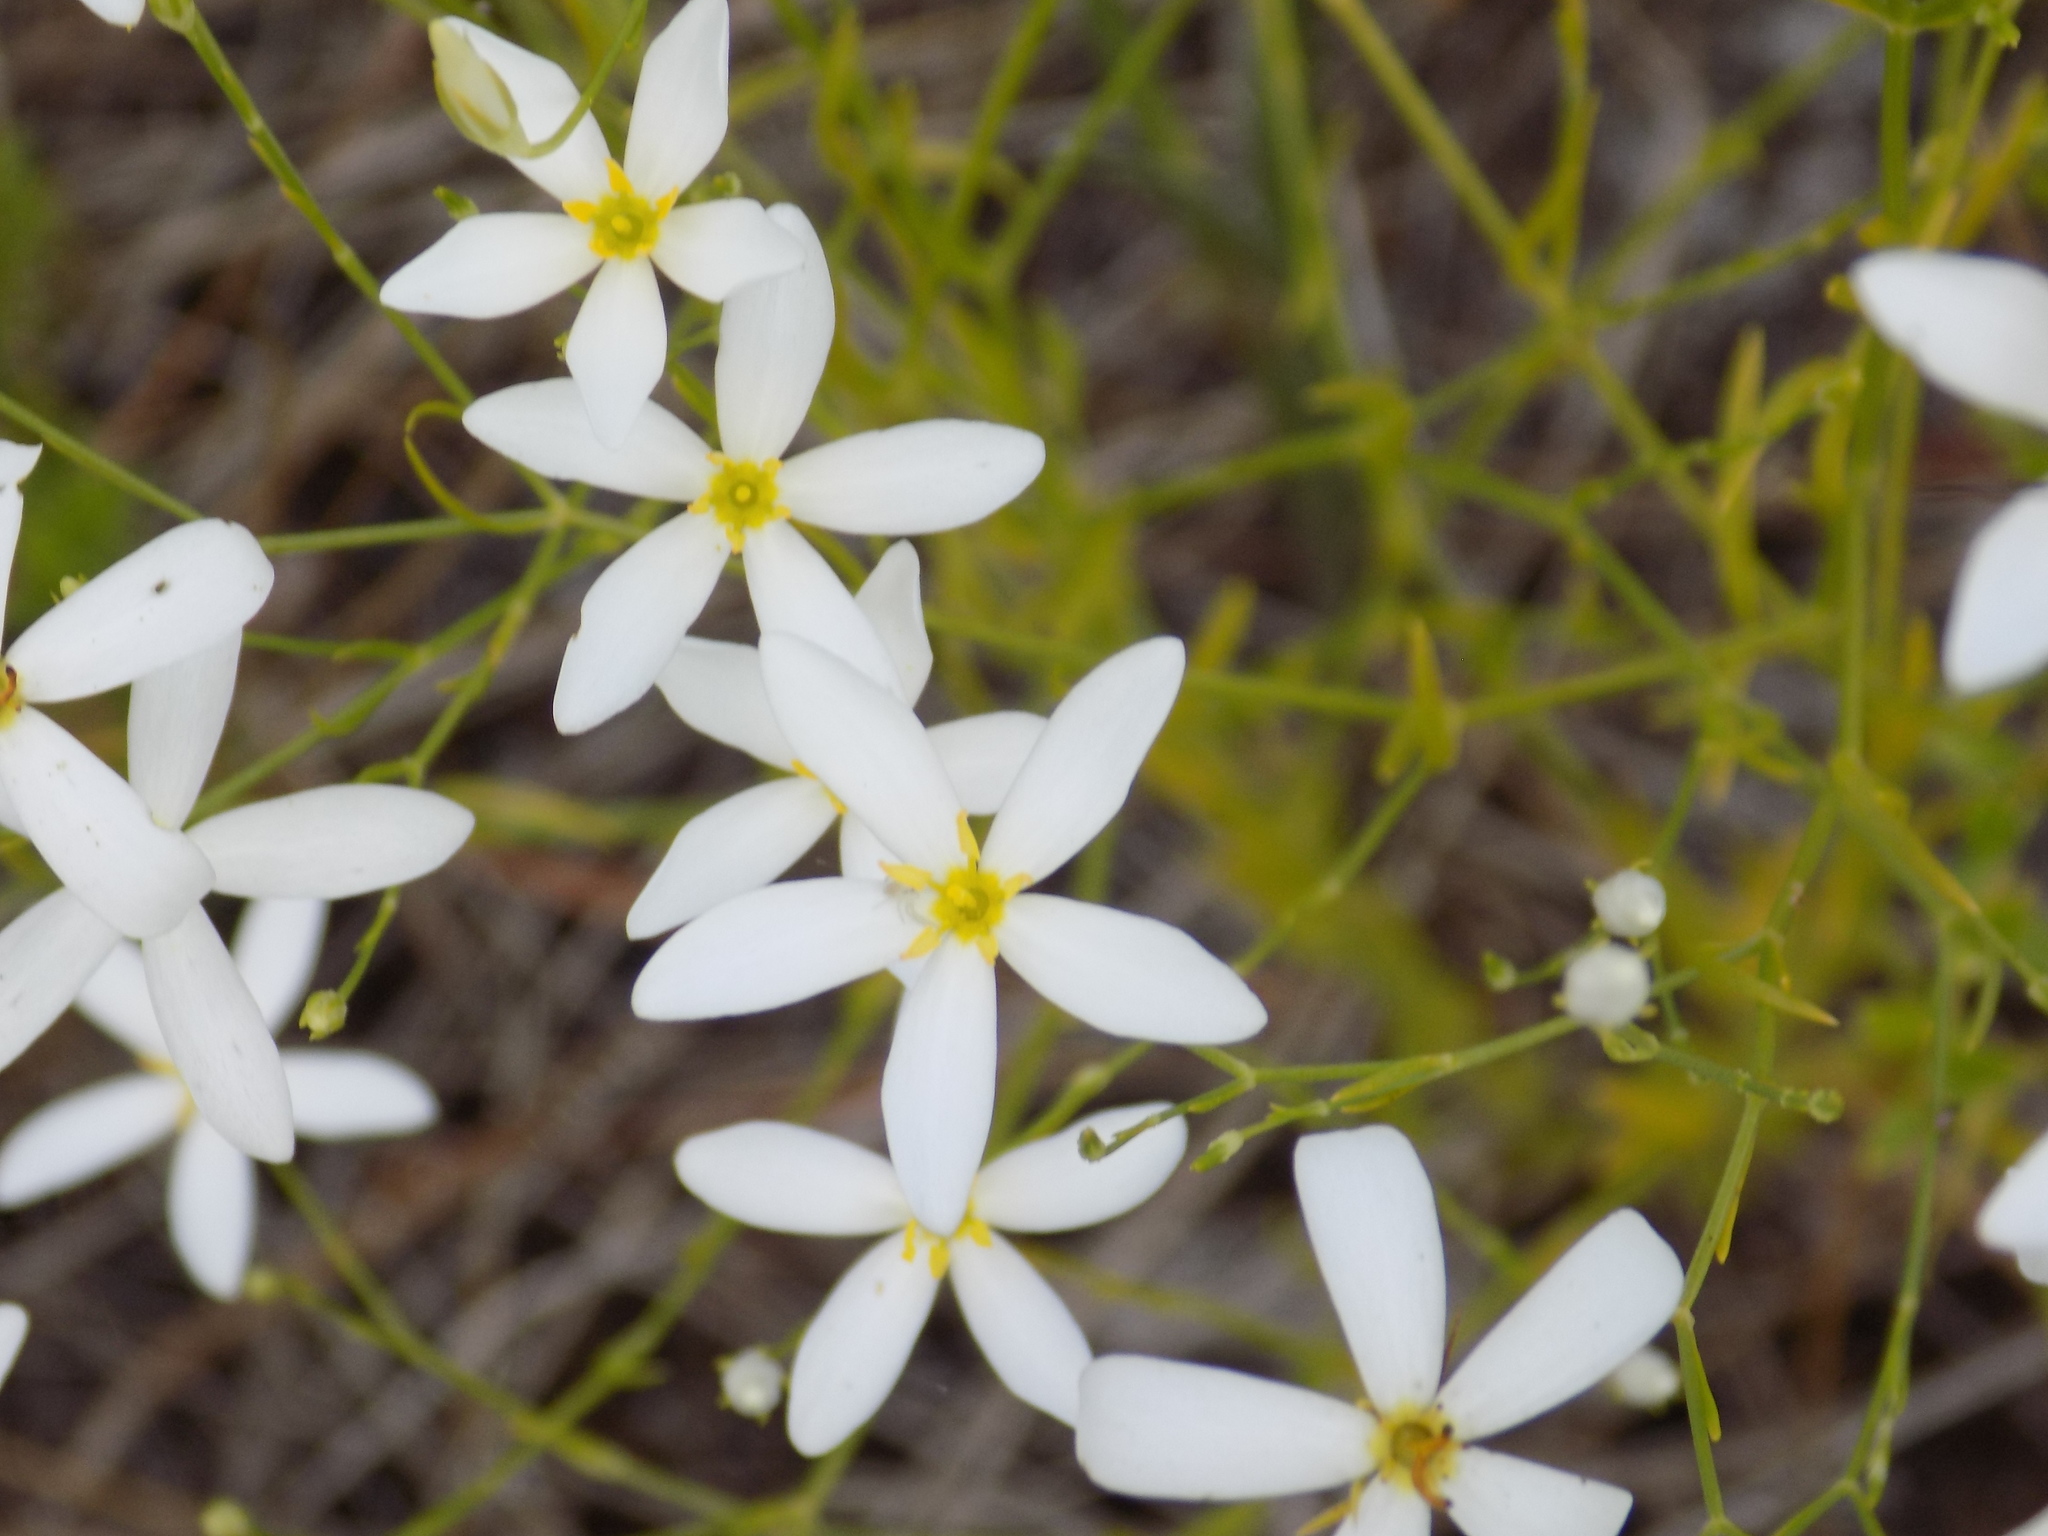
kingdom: Plantae
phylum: Tracheophyta
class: Magnoliopsida
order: Gentianales
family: Gentianaceae
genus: Sabatia
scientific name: Sabatia brevifolia
